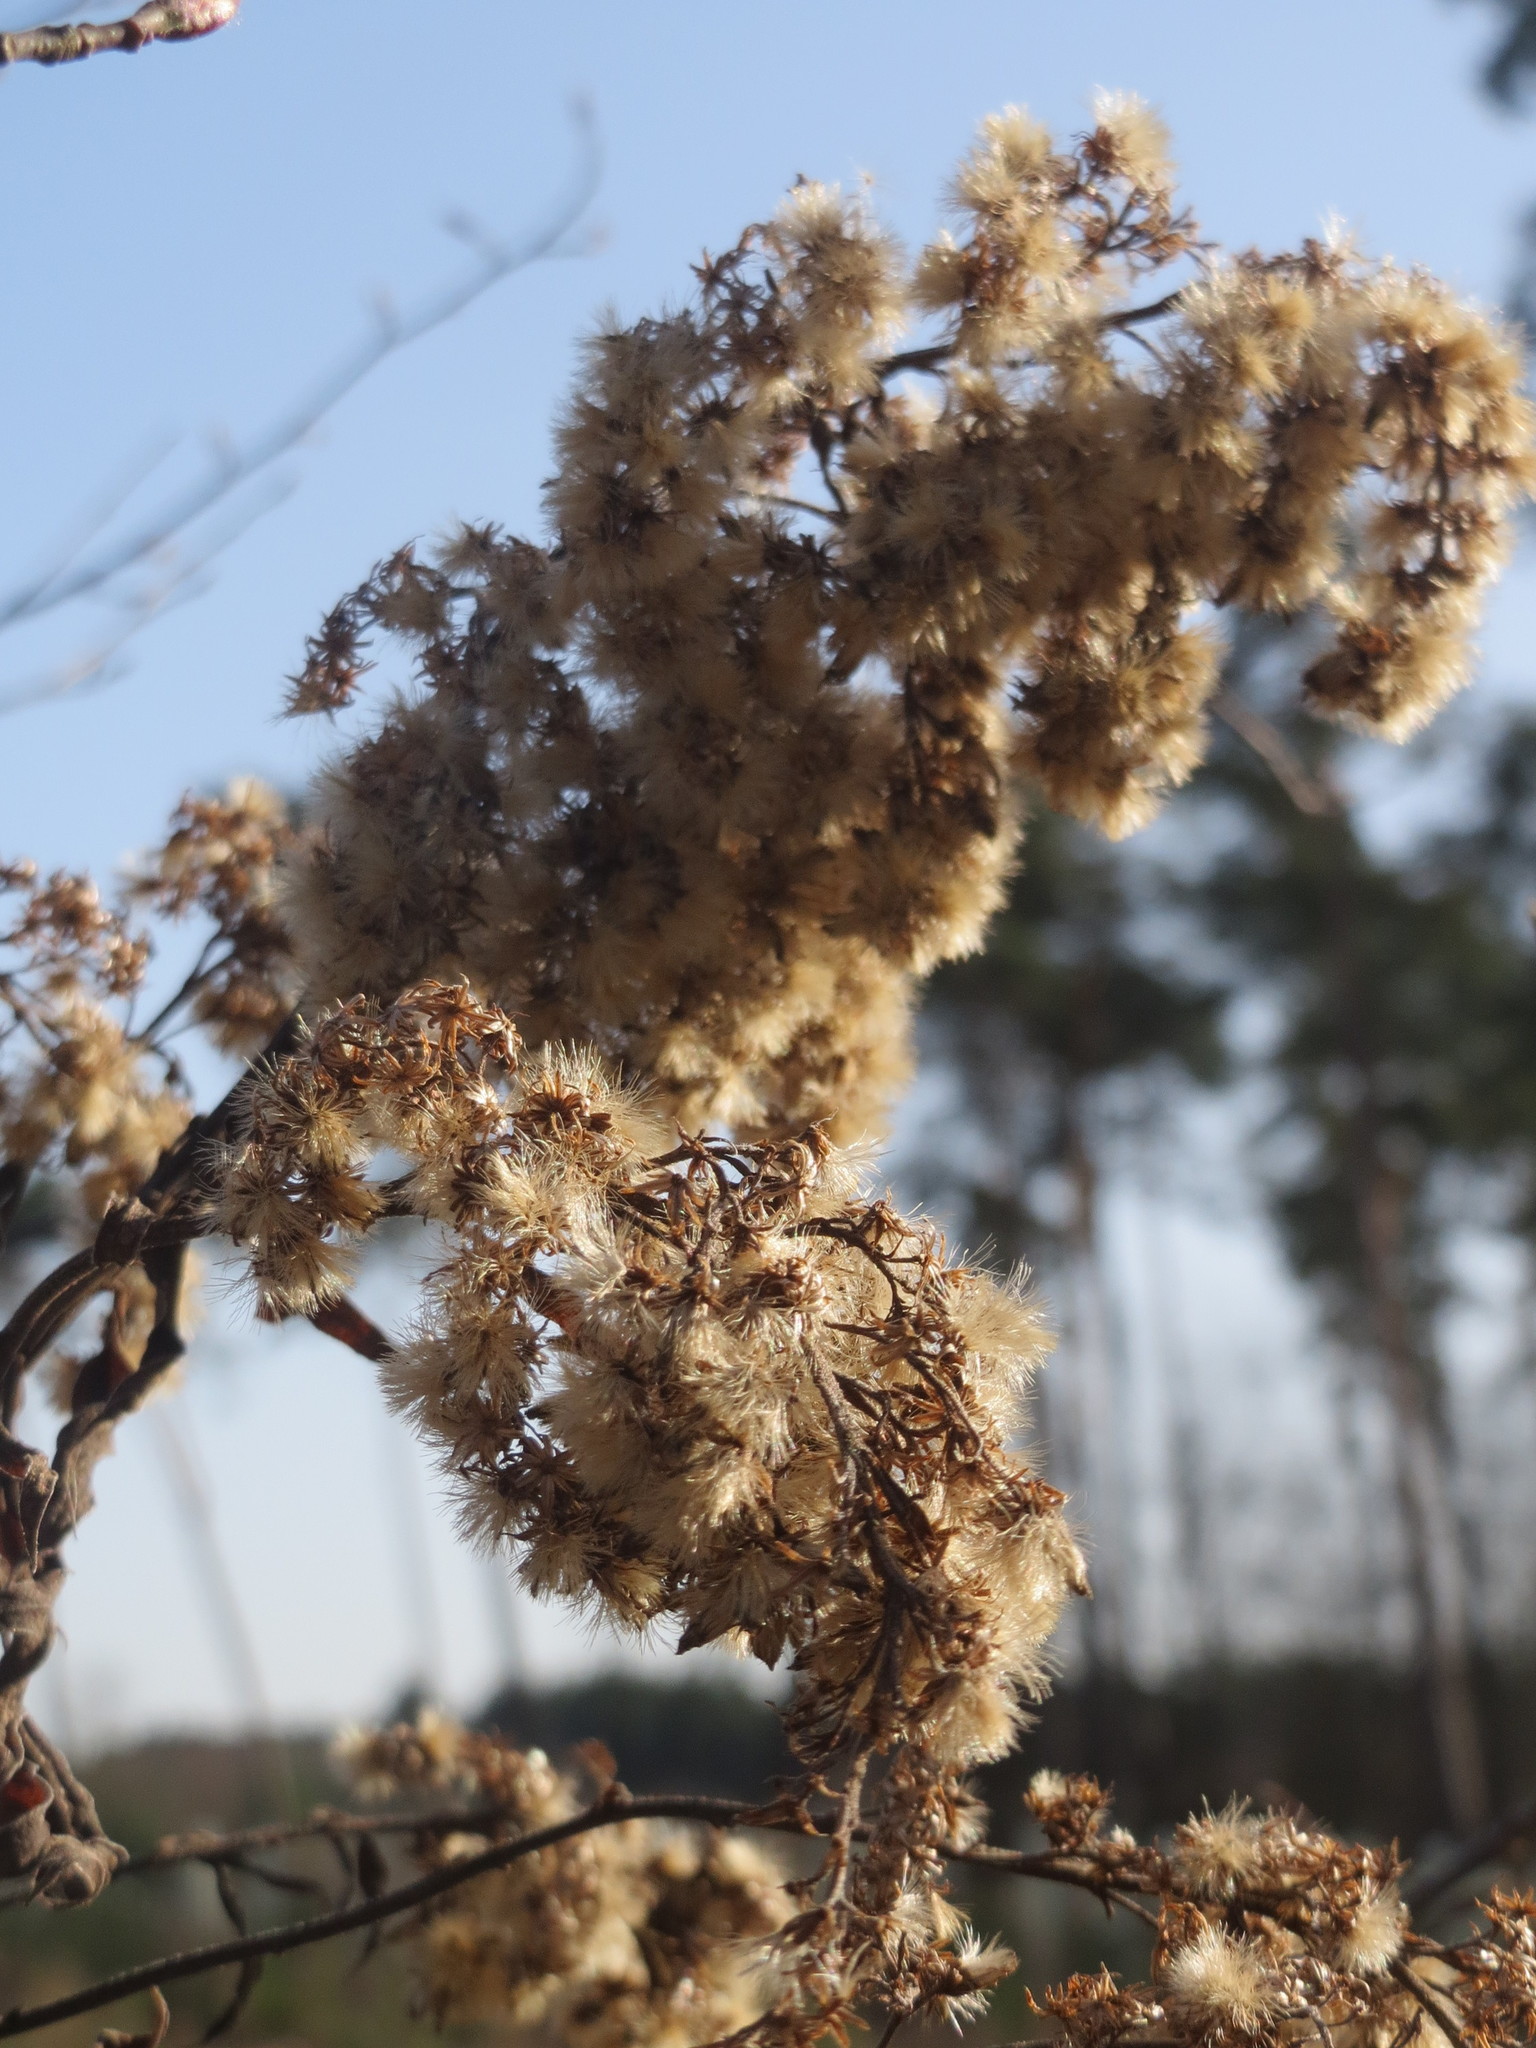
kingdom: Plantae
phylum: Tracheophyta
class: Magnoliopsida
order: Asterales
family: Asteraceae
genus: Solidago
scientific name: Solidago canadensis
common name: Canada goldenrod
